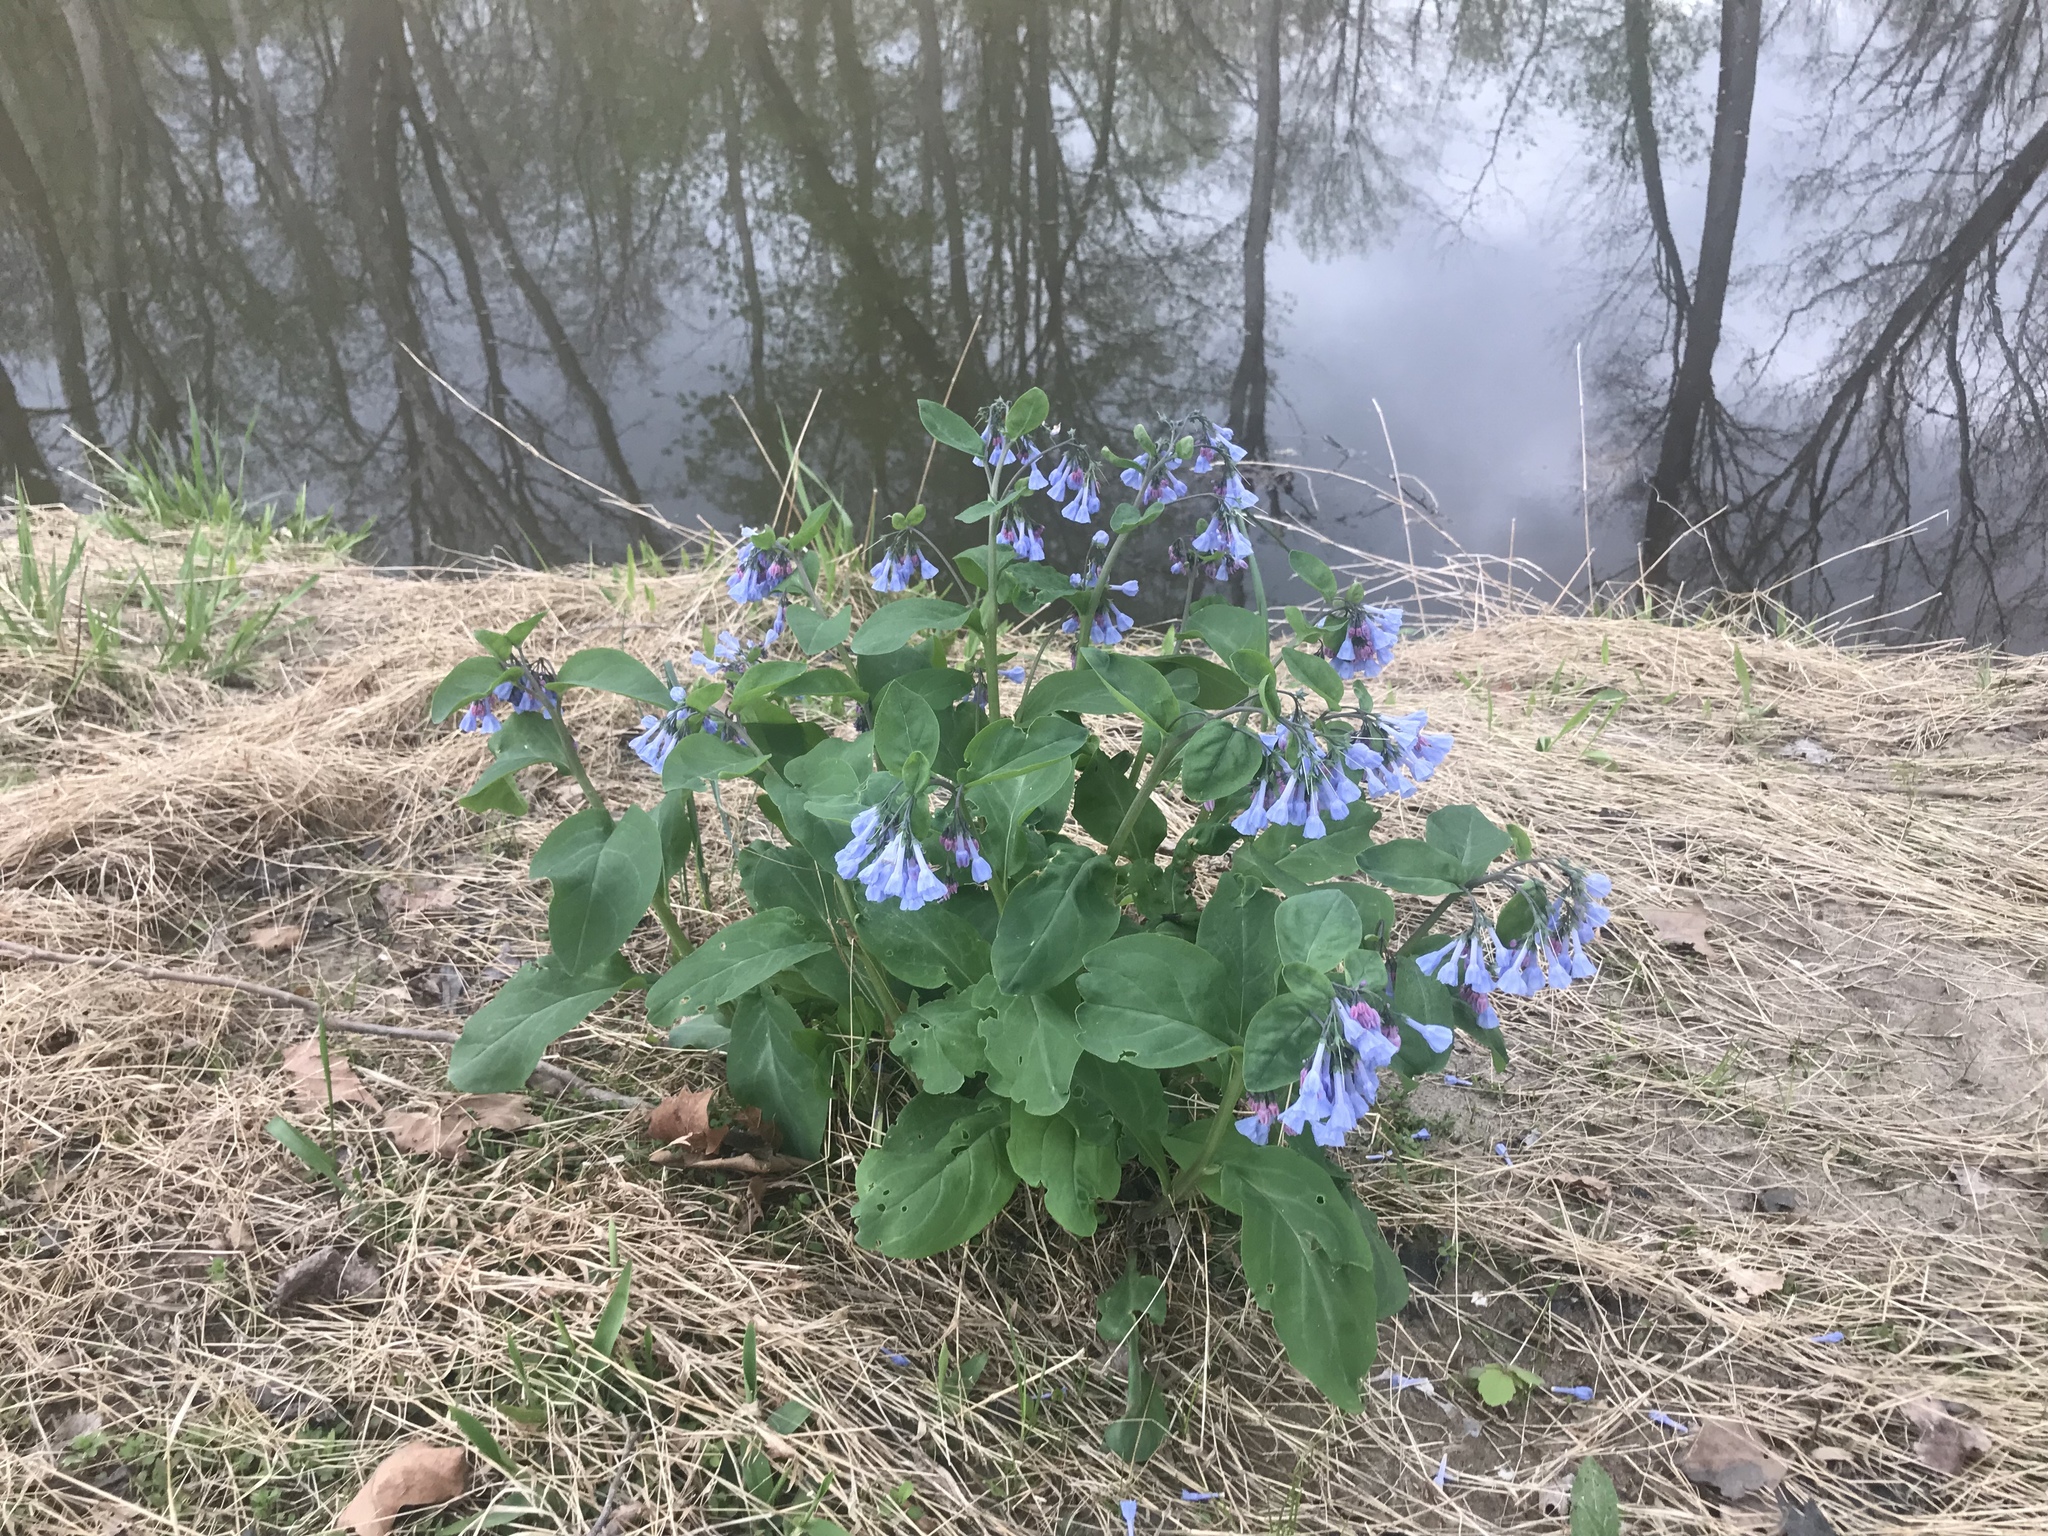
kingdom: Plantae
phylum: Tracheophyta
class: Magnoliopsida
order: Boraginales
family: Boraginaceae
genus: Mertensia
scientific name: Mertensia virginica
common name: Virginia bluebells
